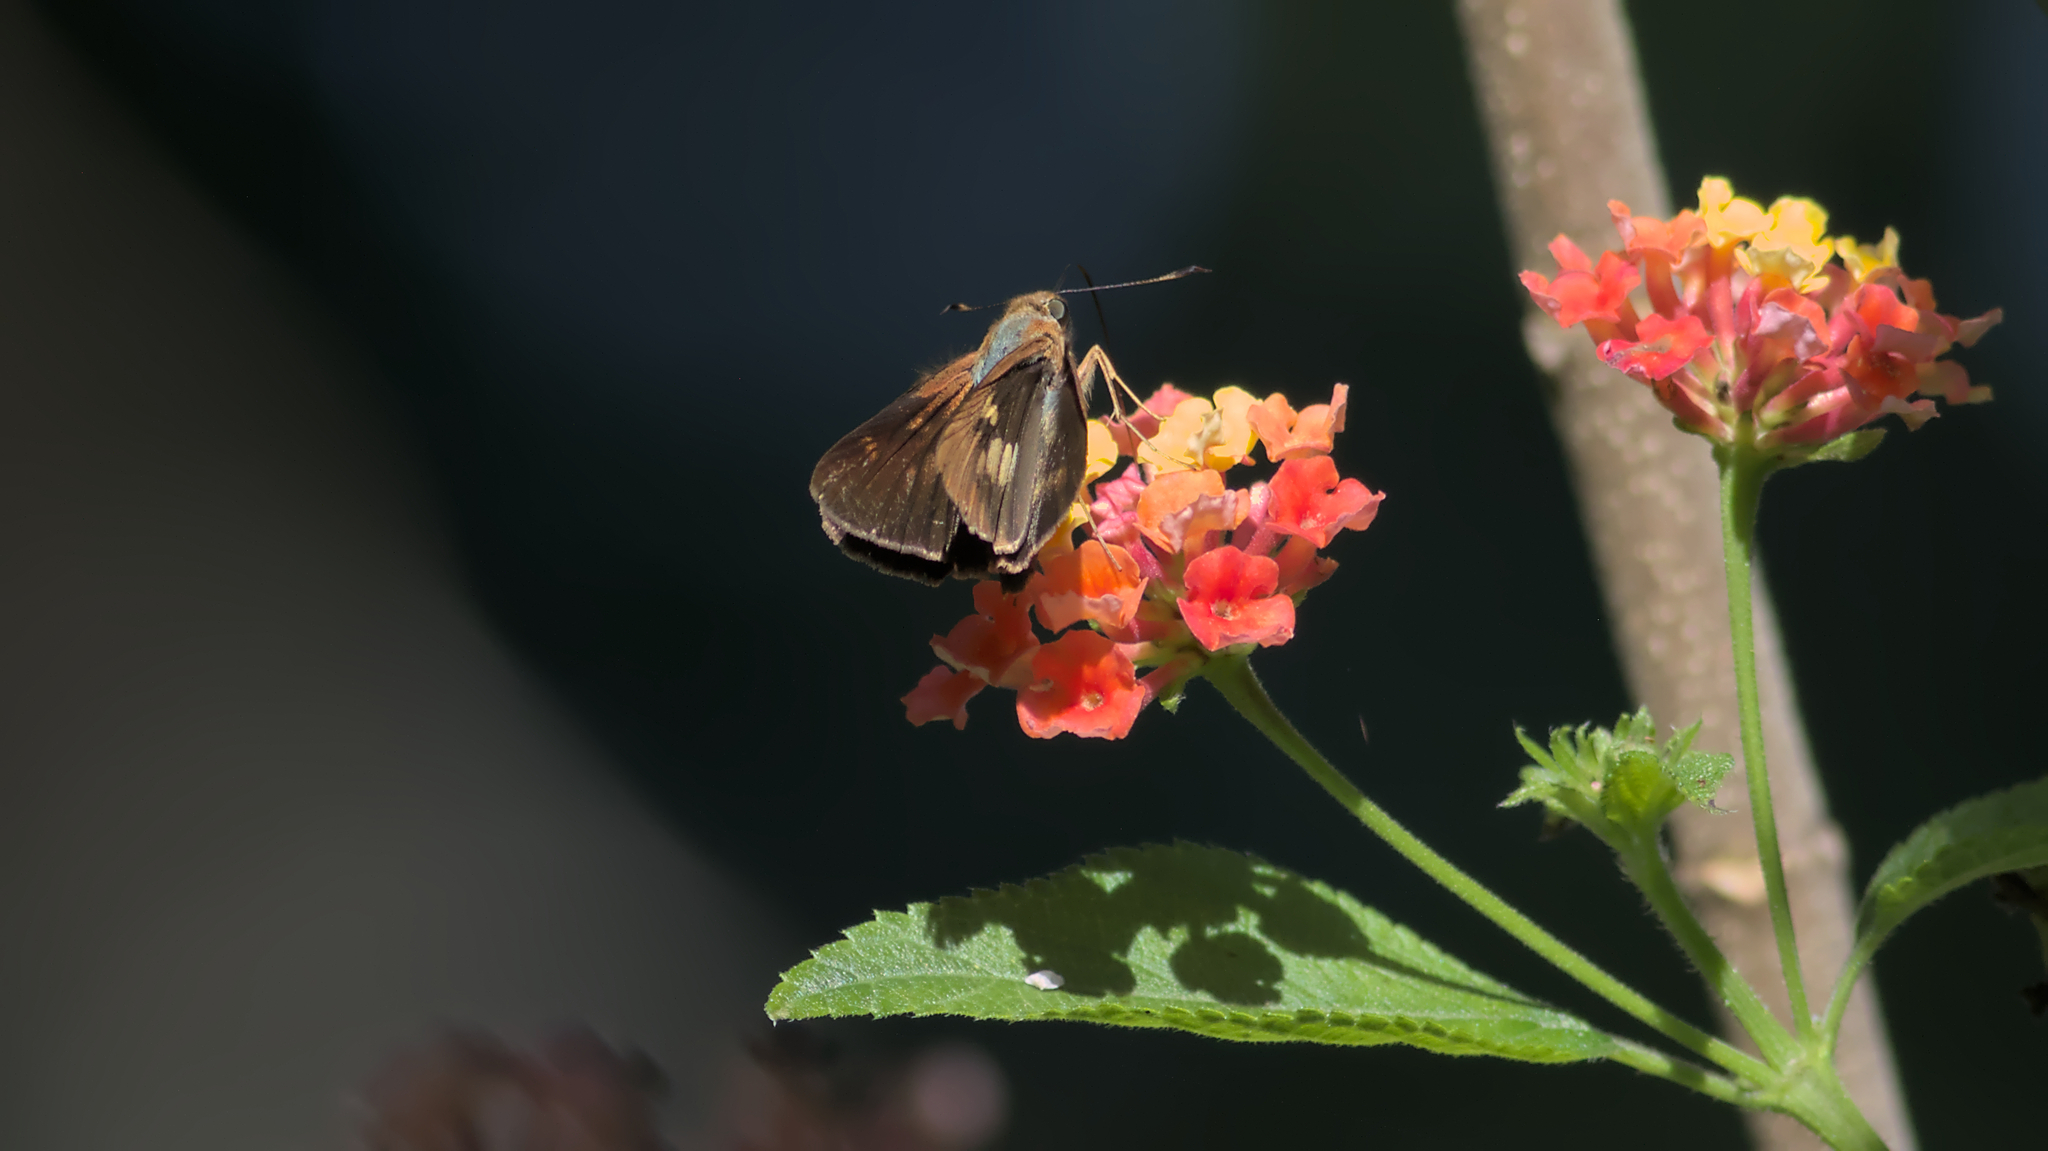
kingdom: Animalia
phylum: Arthropoda
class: Insecta
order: Lepidoptera
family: Hesperiidae
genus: Cephrenes
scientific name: Cephrenes augiades
